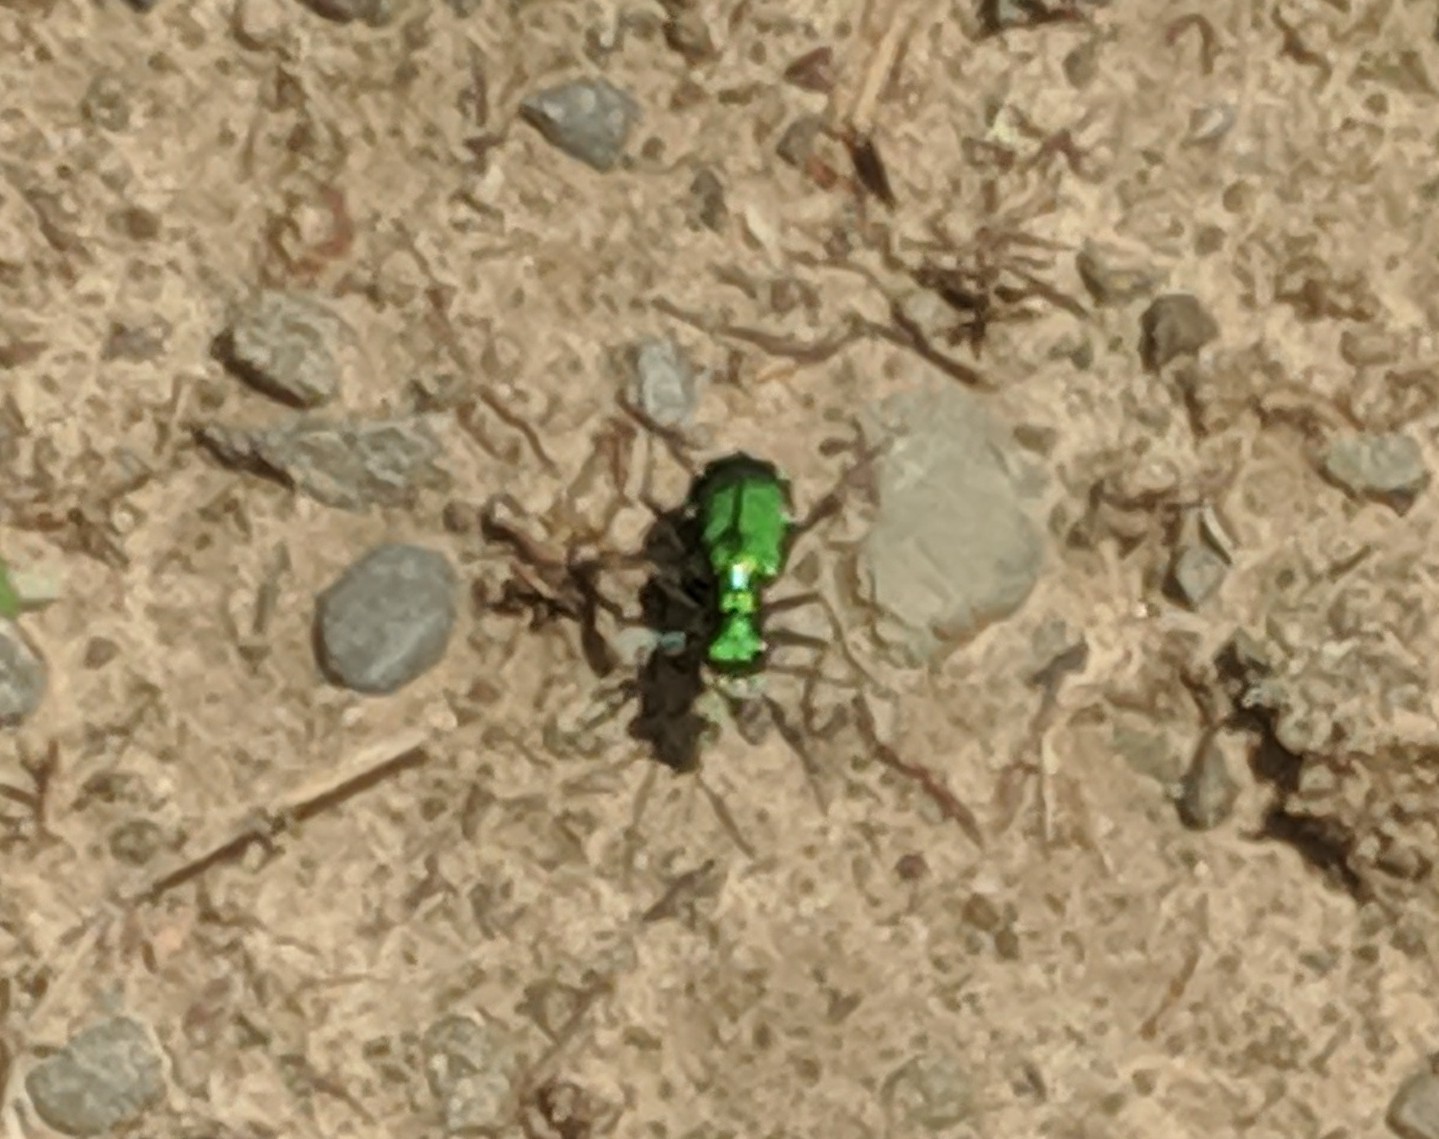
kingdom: Animalia
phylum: Arthropoda
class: Insecta
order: Coleoptera
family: Carabidae
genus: Cicindela
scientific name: Cicindela sexguttata
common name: Six-spotted tiger beetle
